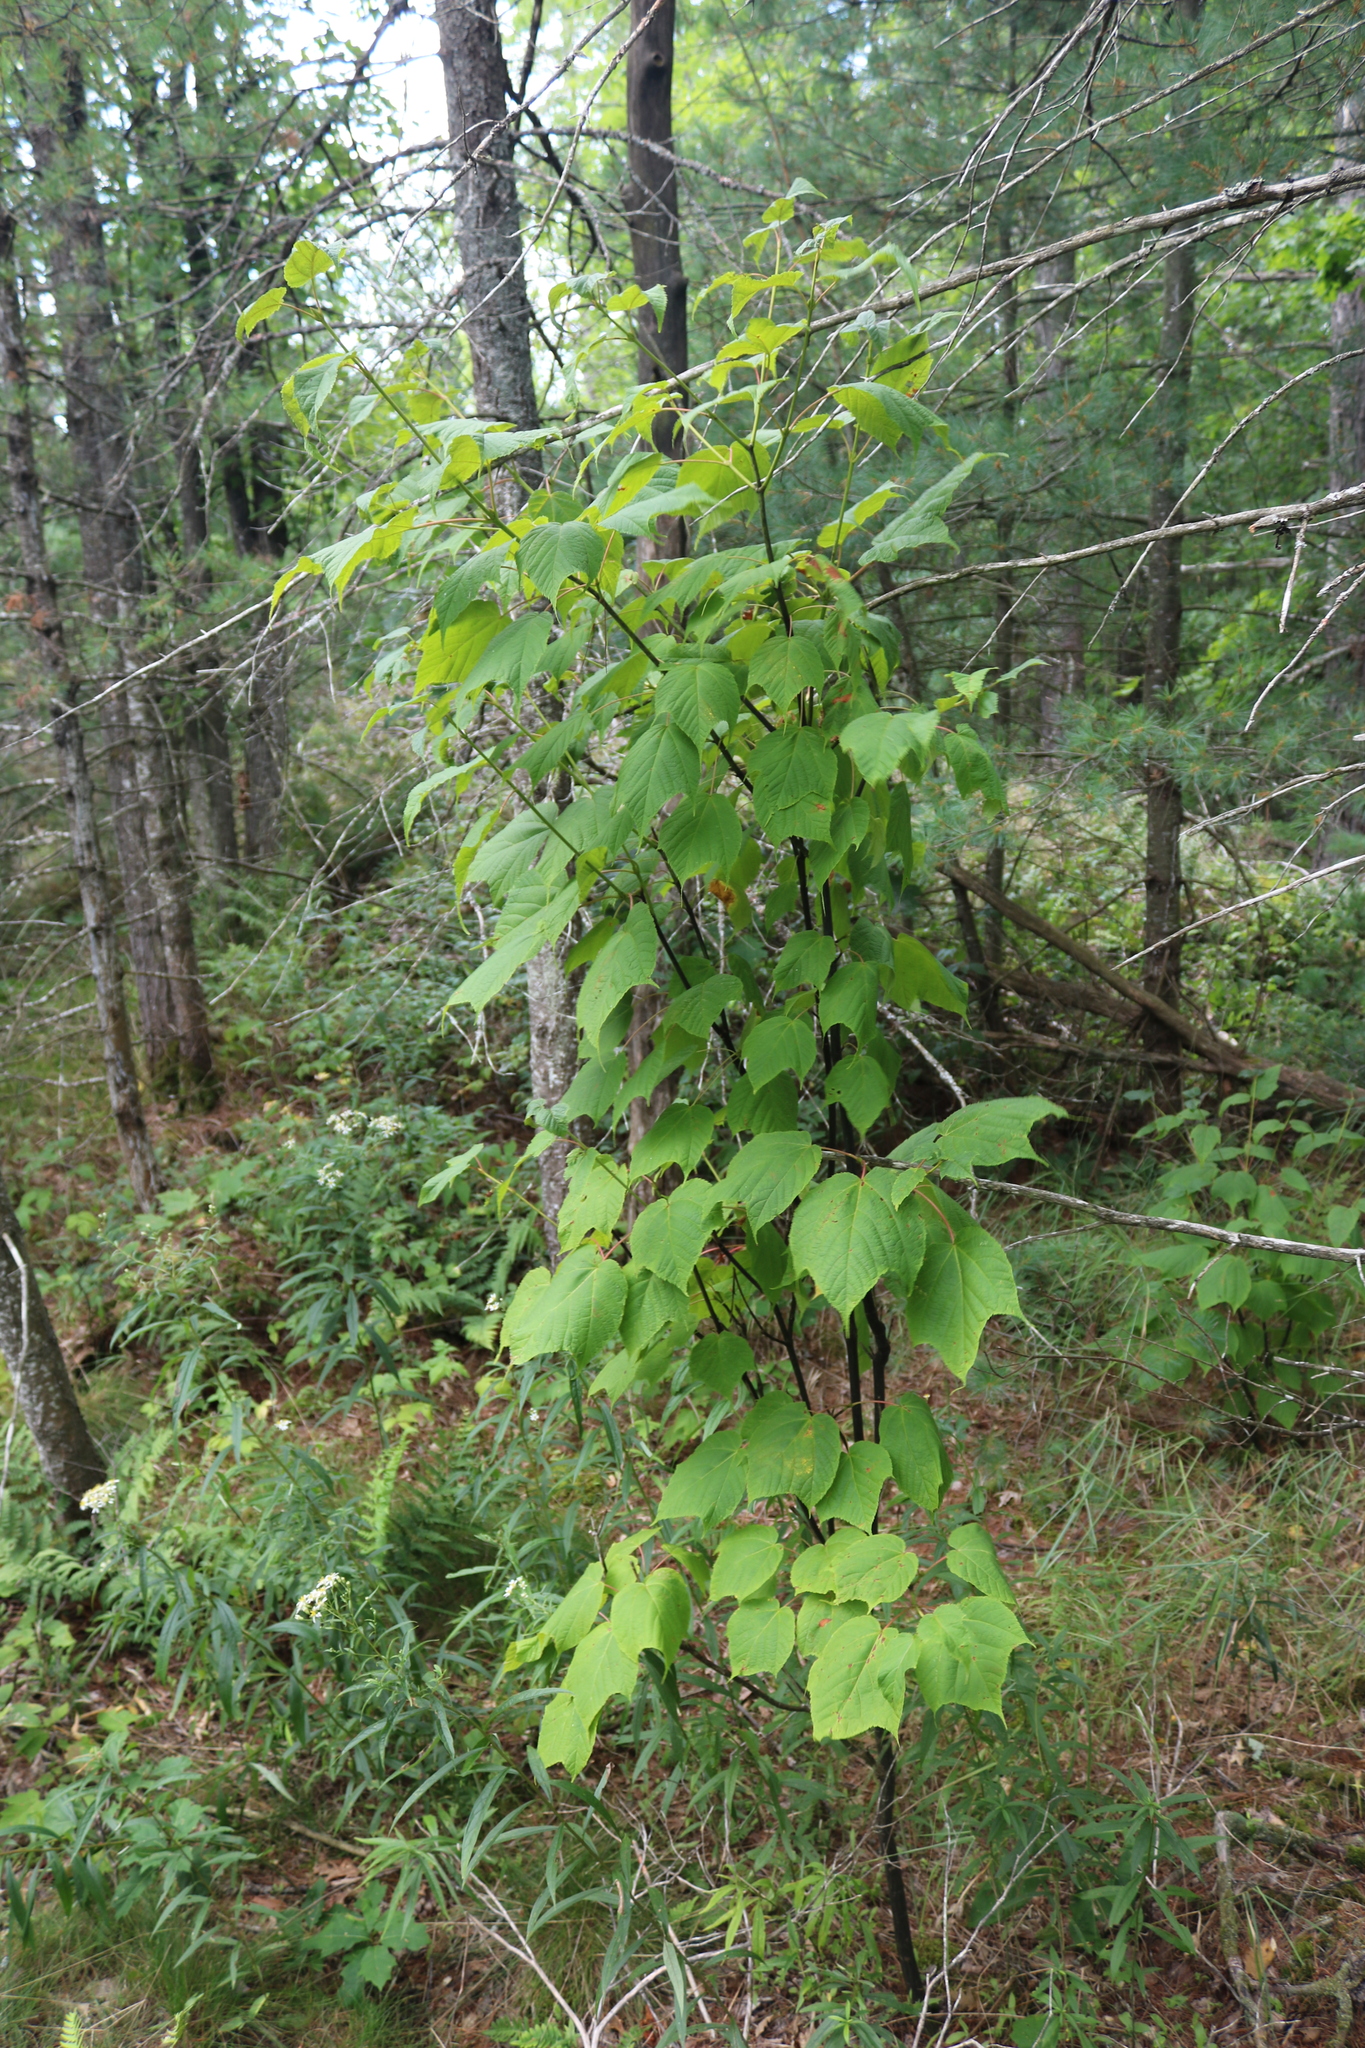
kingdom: Plantae
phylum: Tracheophyta
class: Magnoliopsida
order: Sapindales
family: Sapindaceae
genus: Acer
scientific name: Acer pensylvanicum
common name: Moosewood
